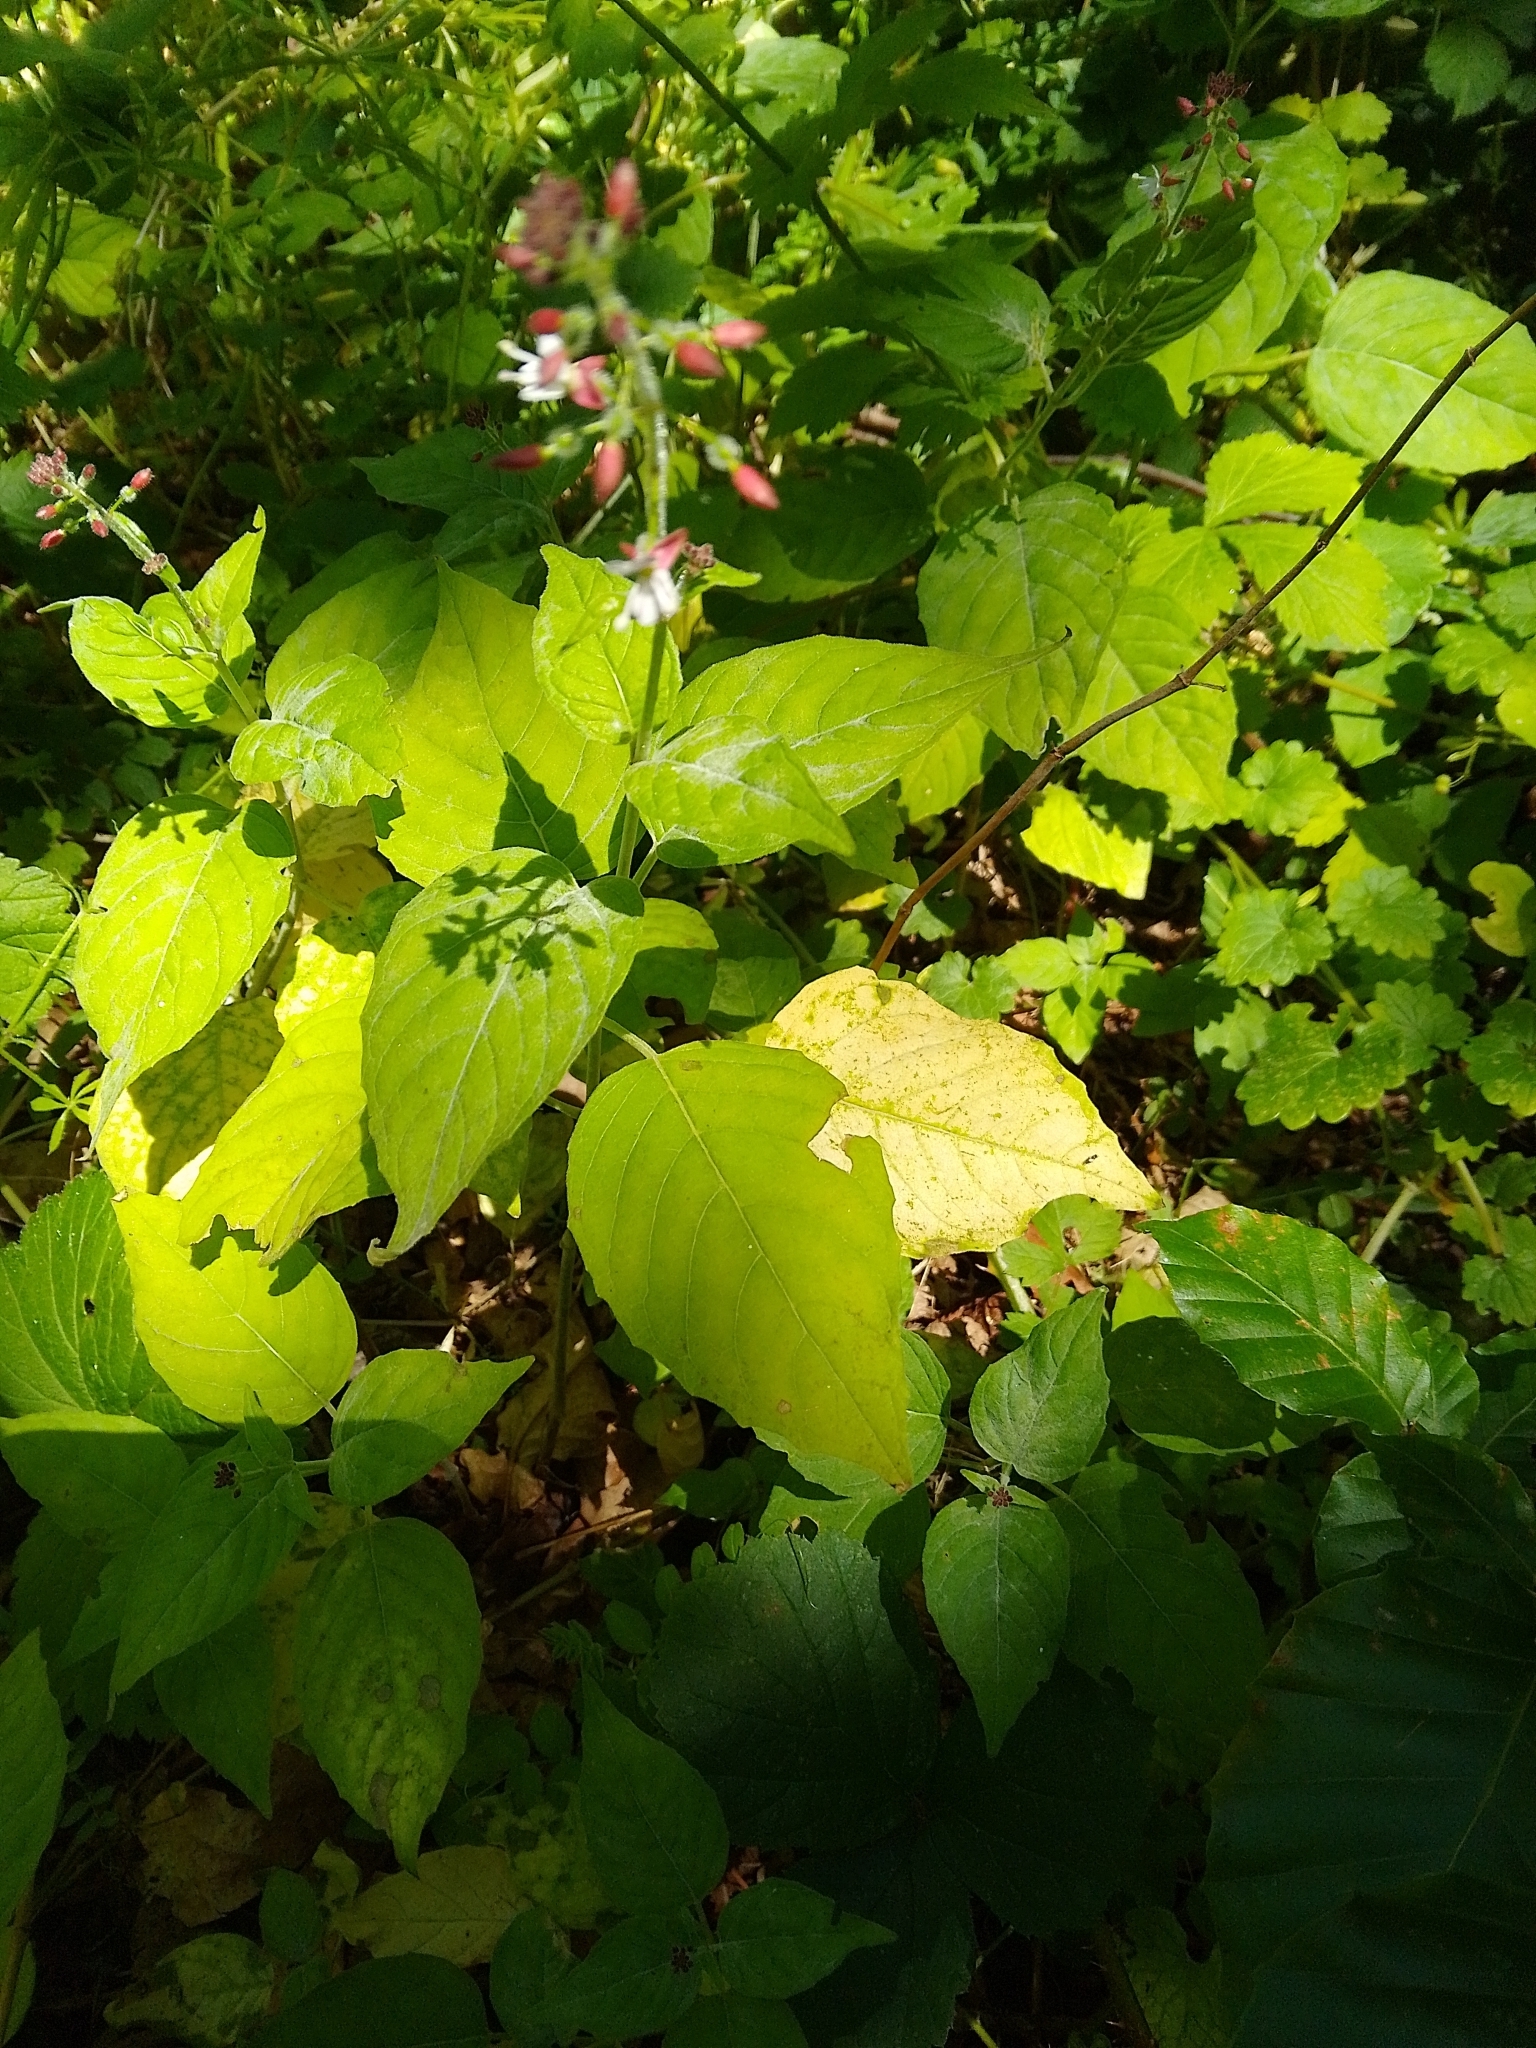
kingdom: Plantae
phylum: Tracheophyta
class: Magnoliopsida
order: Myrtales
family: Onagraceae
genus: Circaea
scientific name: Circaea lutetiana
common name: Enchanter's-nightshade
